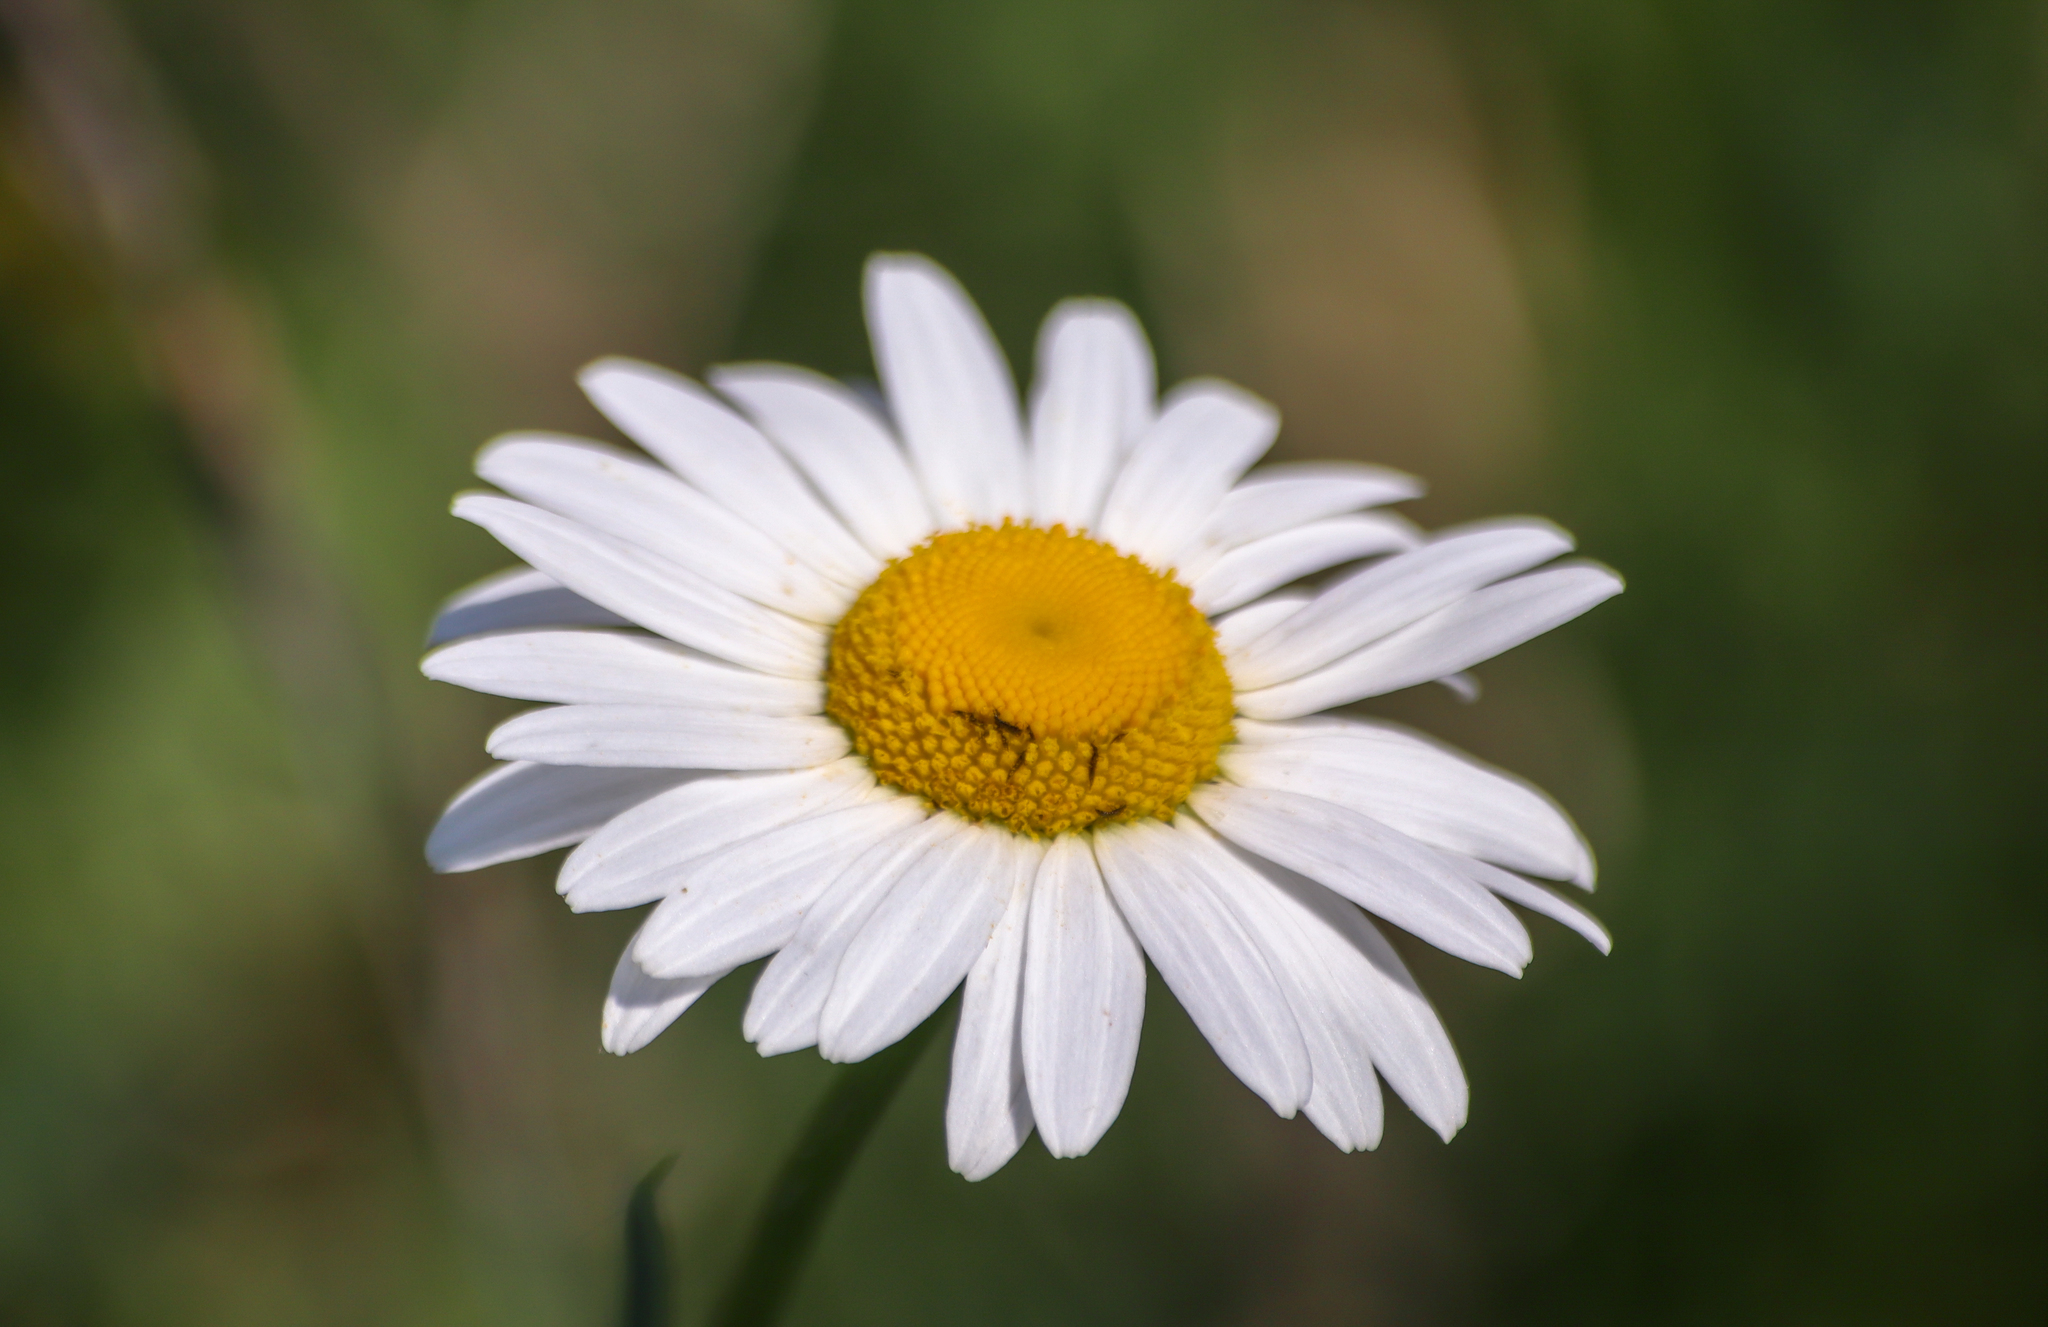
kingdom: Plantae
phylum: Tracheophyta
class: Magnoliopsida
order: Asterales
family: Asteraceae
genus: Leucanthemum
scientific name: Leucanthemum vulgare
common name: Oxeye daisy
